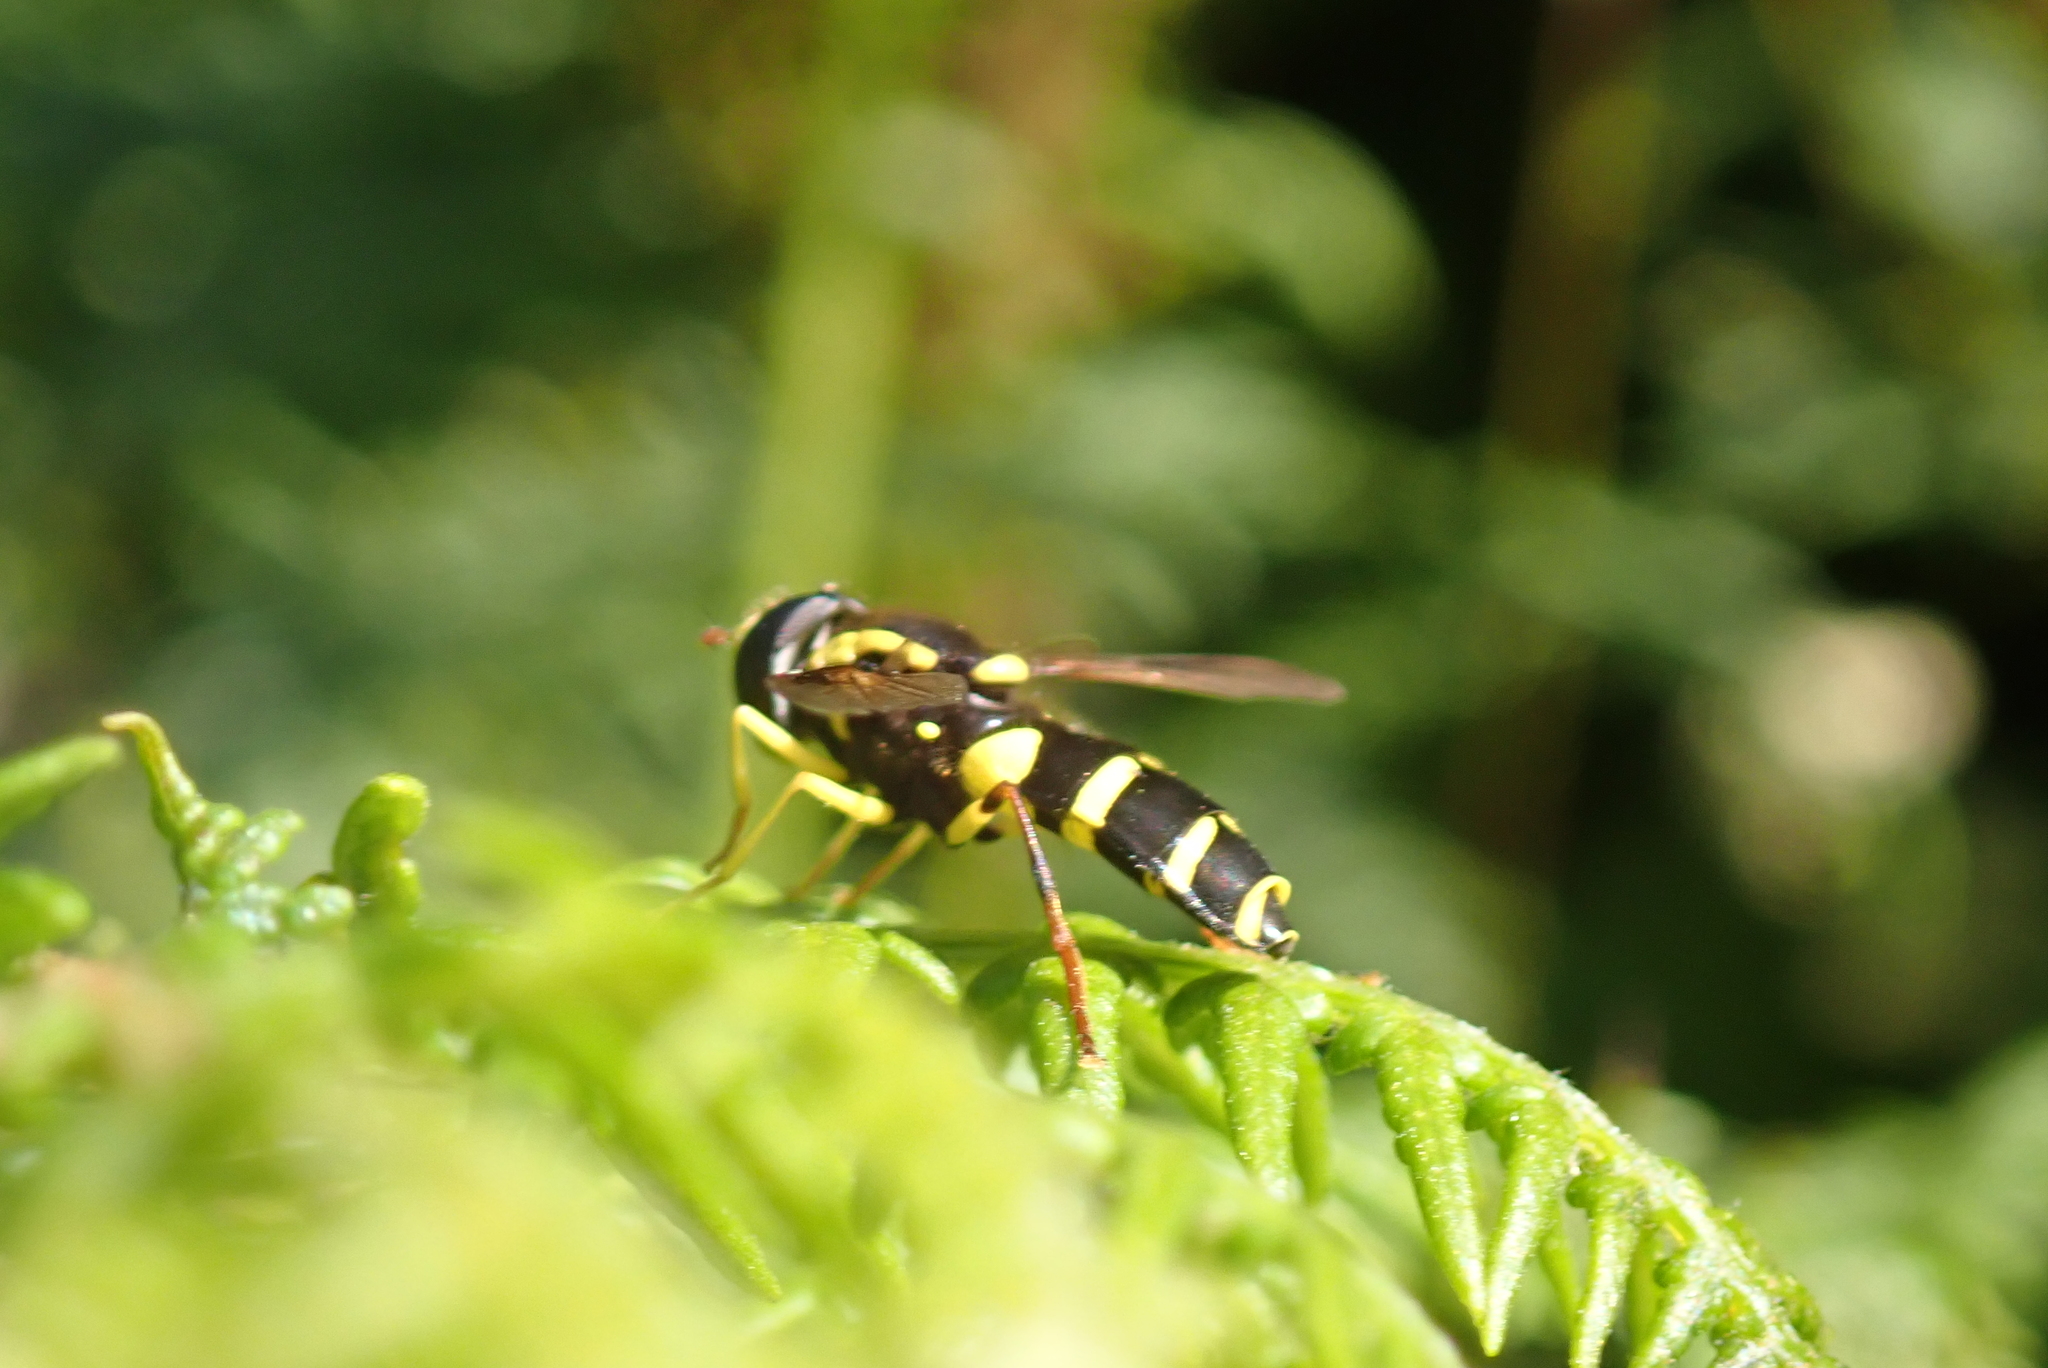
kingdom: Animalia
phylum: Arthropoda
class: Insecta
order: Diptera
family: Syrphidae
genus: Philhelius
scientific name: Philhelius pedissequum
